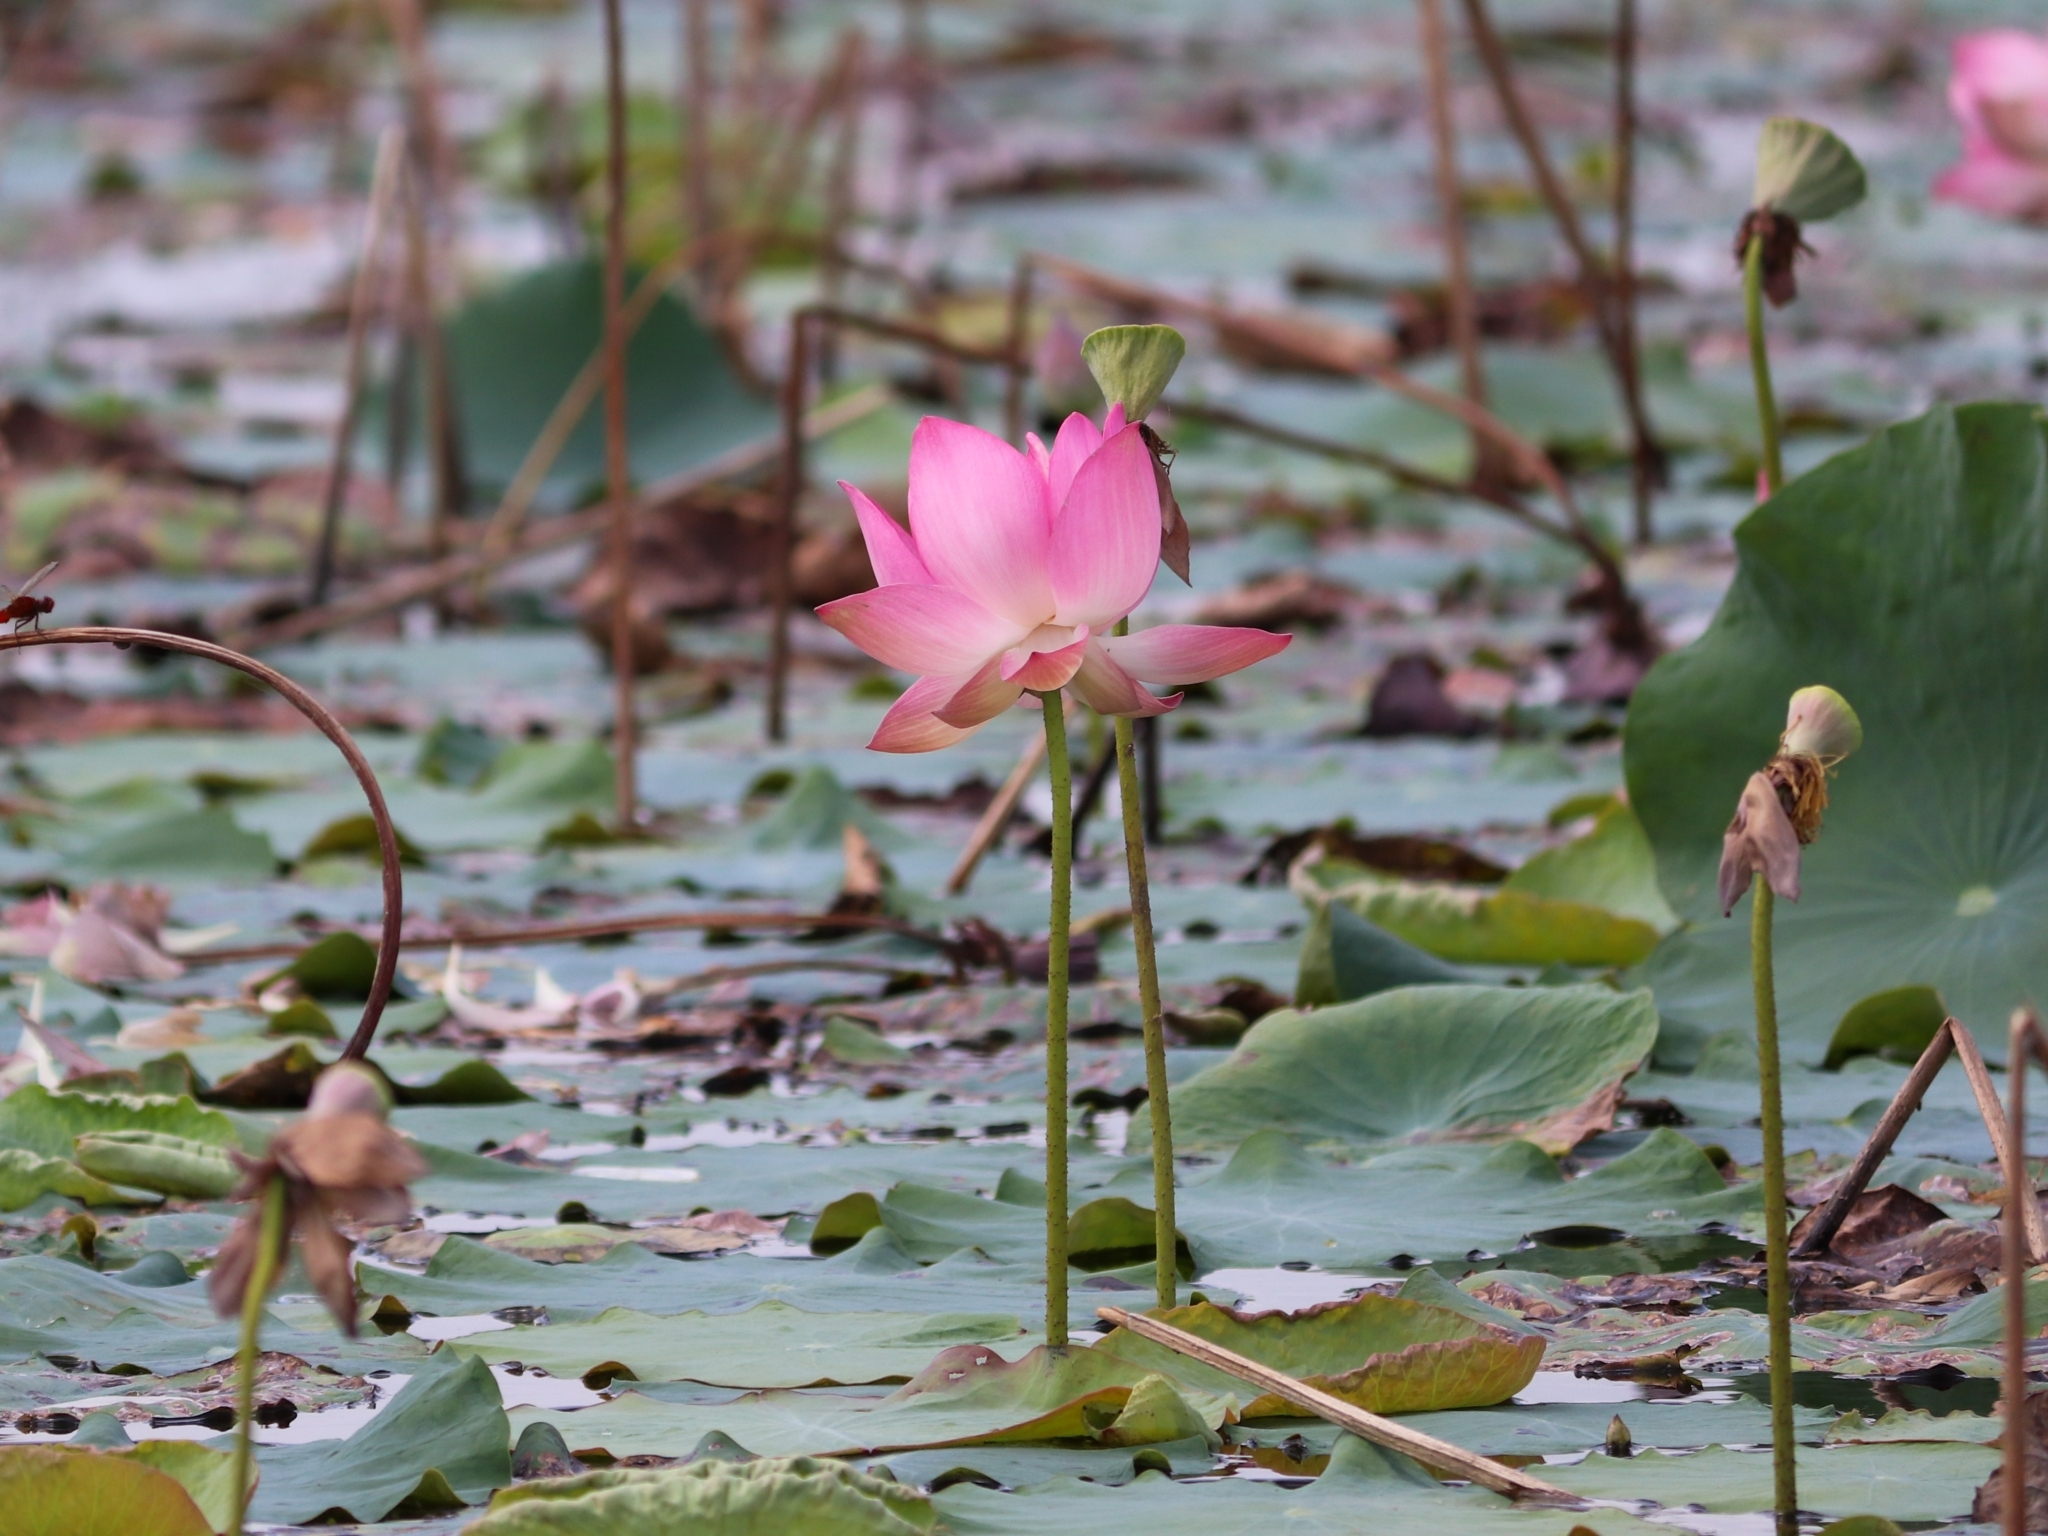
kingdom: Plantae
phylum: Tracheophyta
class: Magnoliopsida
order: Proteales
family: Nelumbonaceae
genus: Nelumbo
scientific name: Nelumbo nucifera
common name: Sacred lotus
